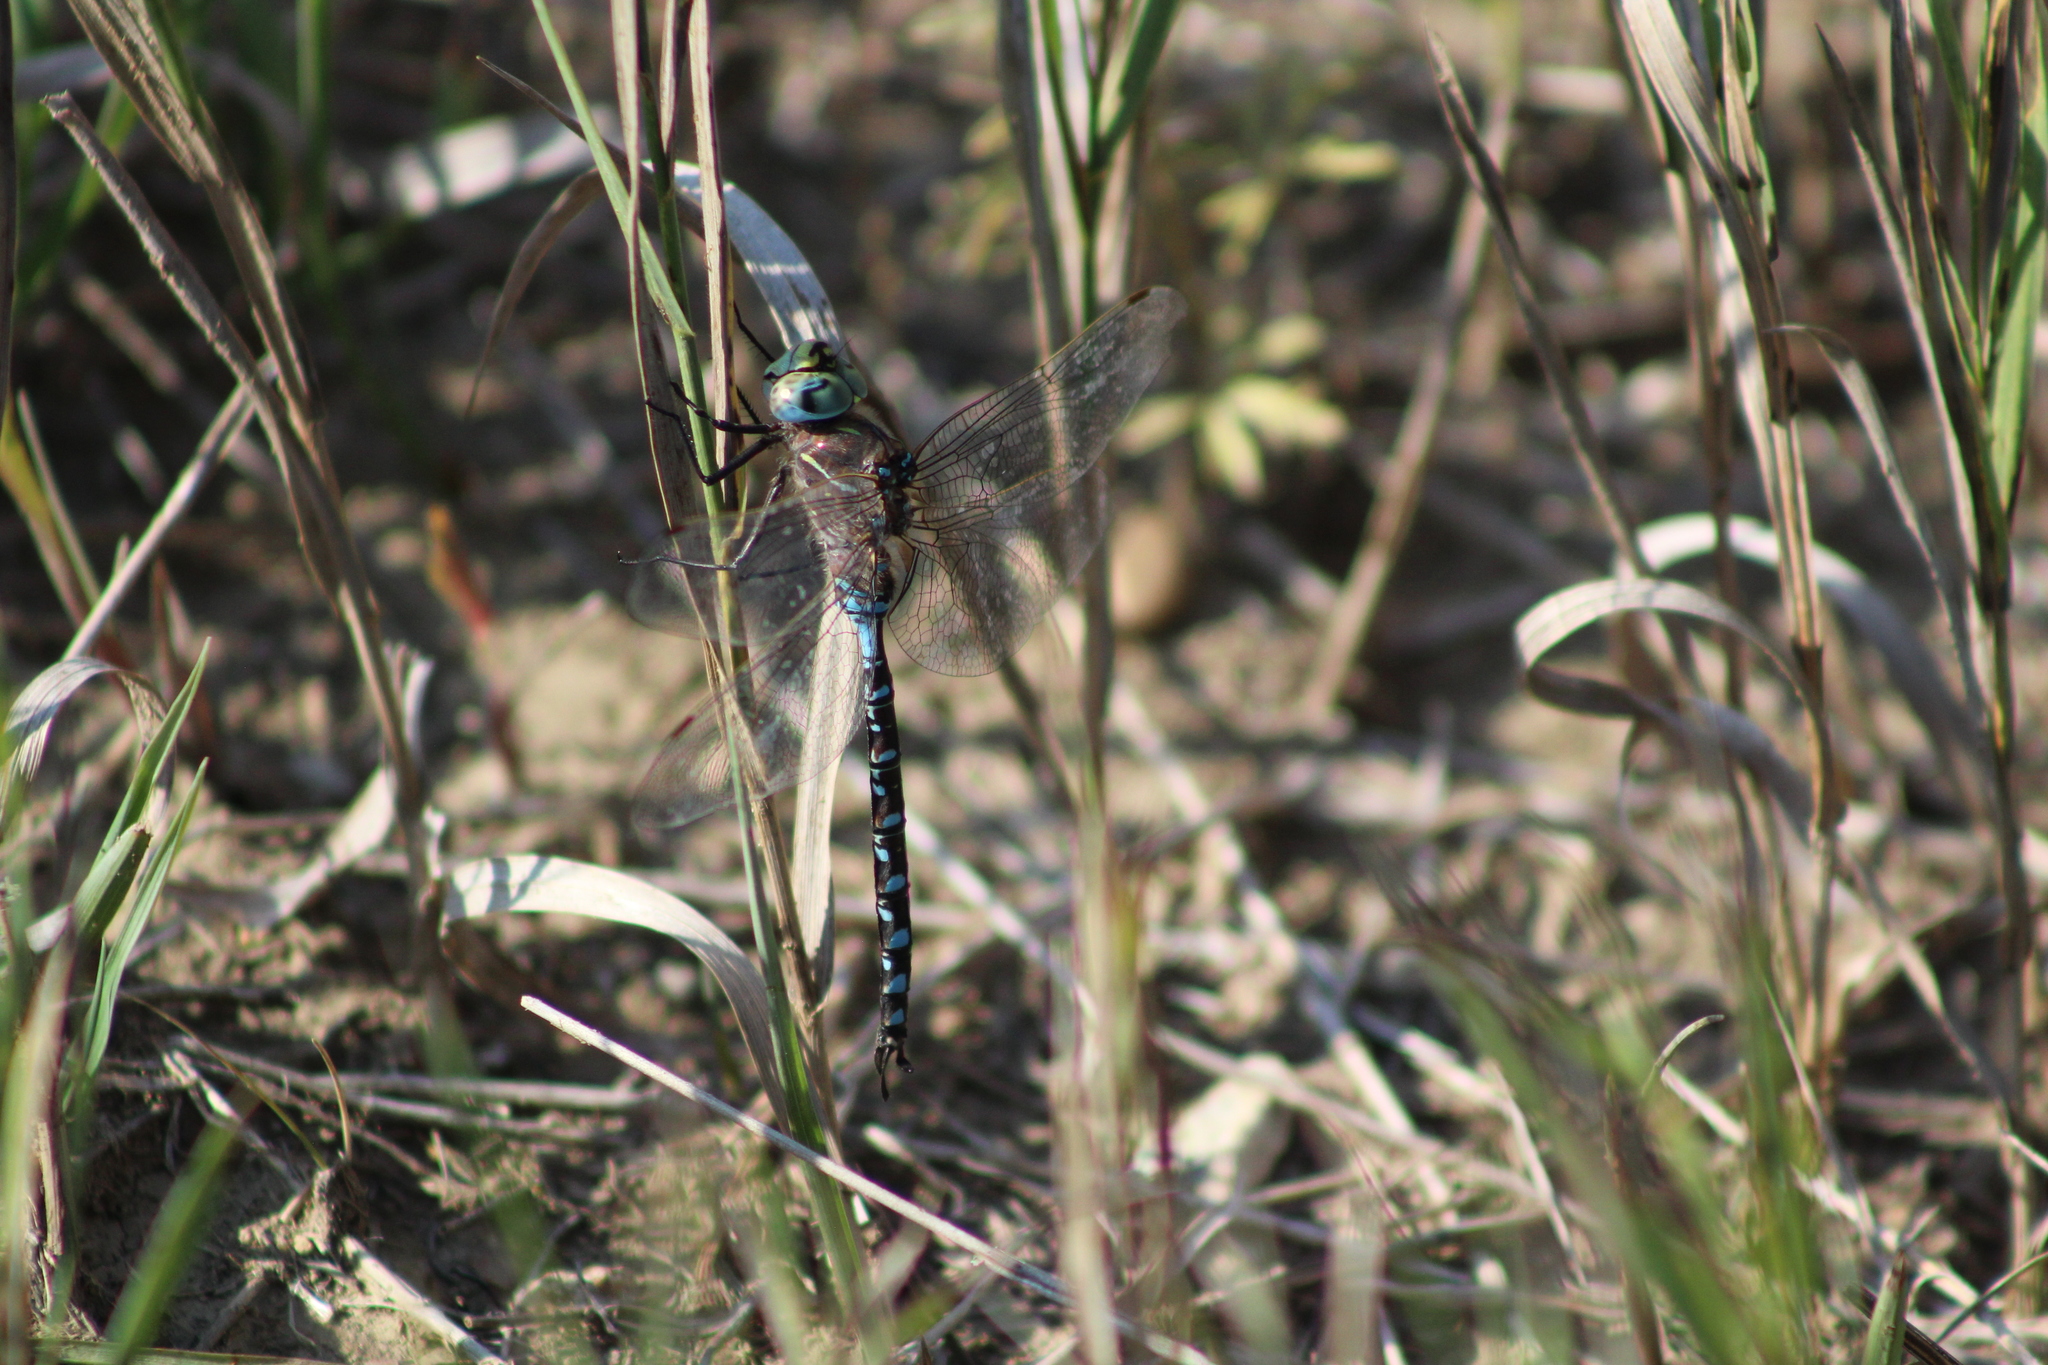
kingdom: Animalia
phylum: Arthropoda
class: Insecta
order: Odonata
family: Aeshnidae
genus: Aeshna
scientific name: Aeshna interrupta
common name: Variable darner
